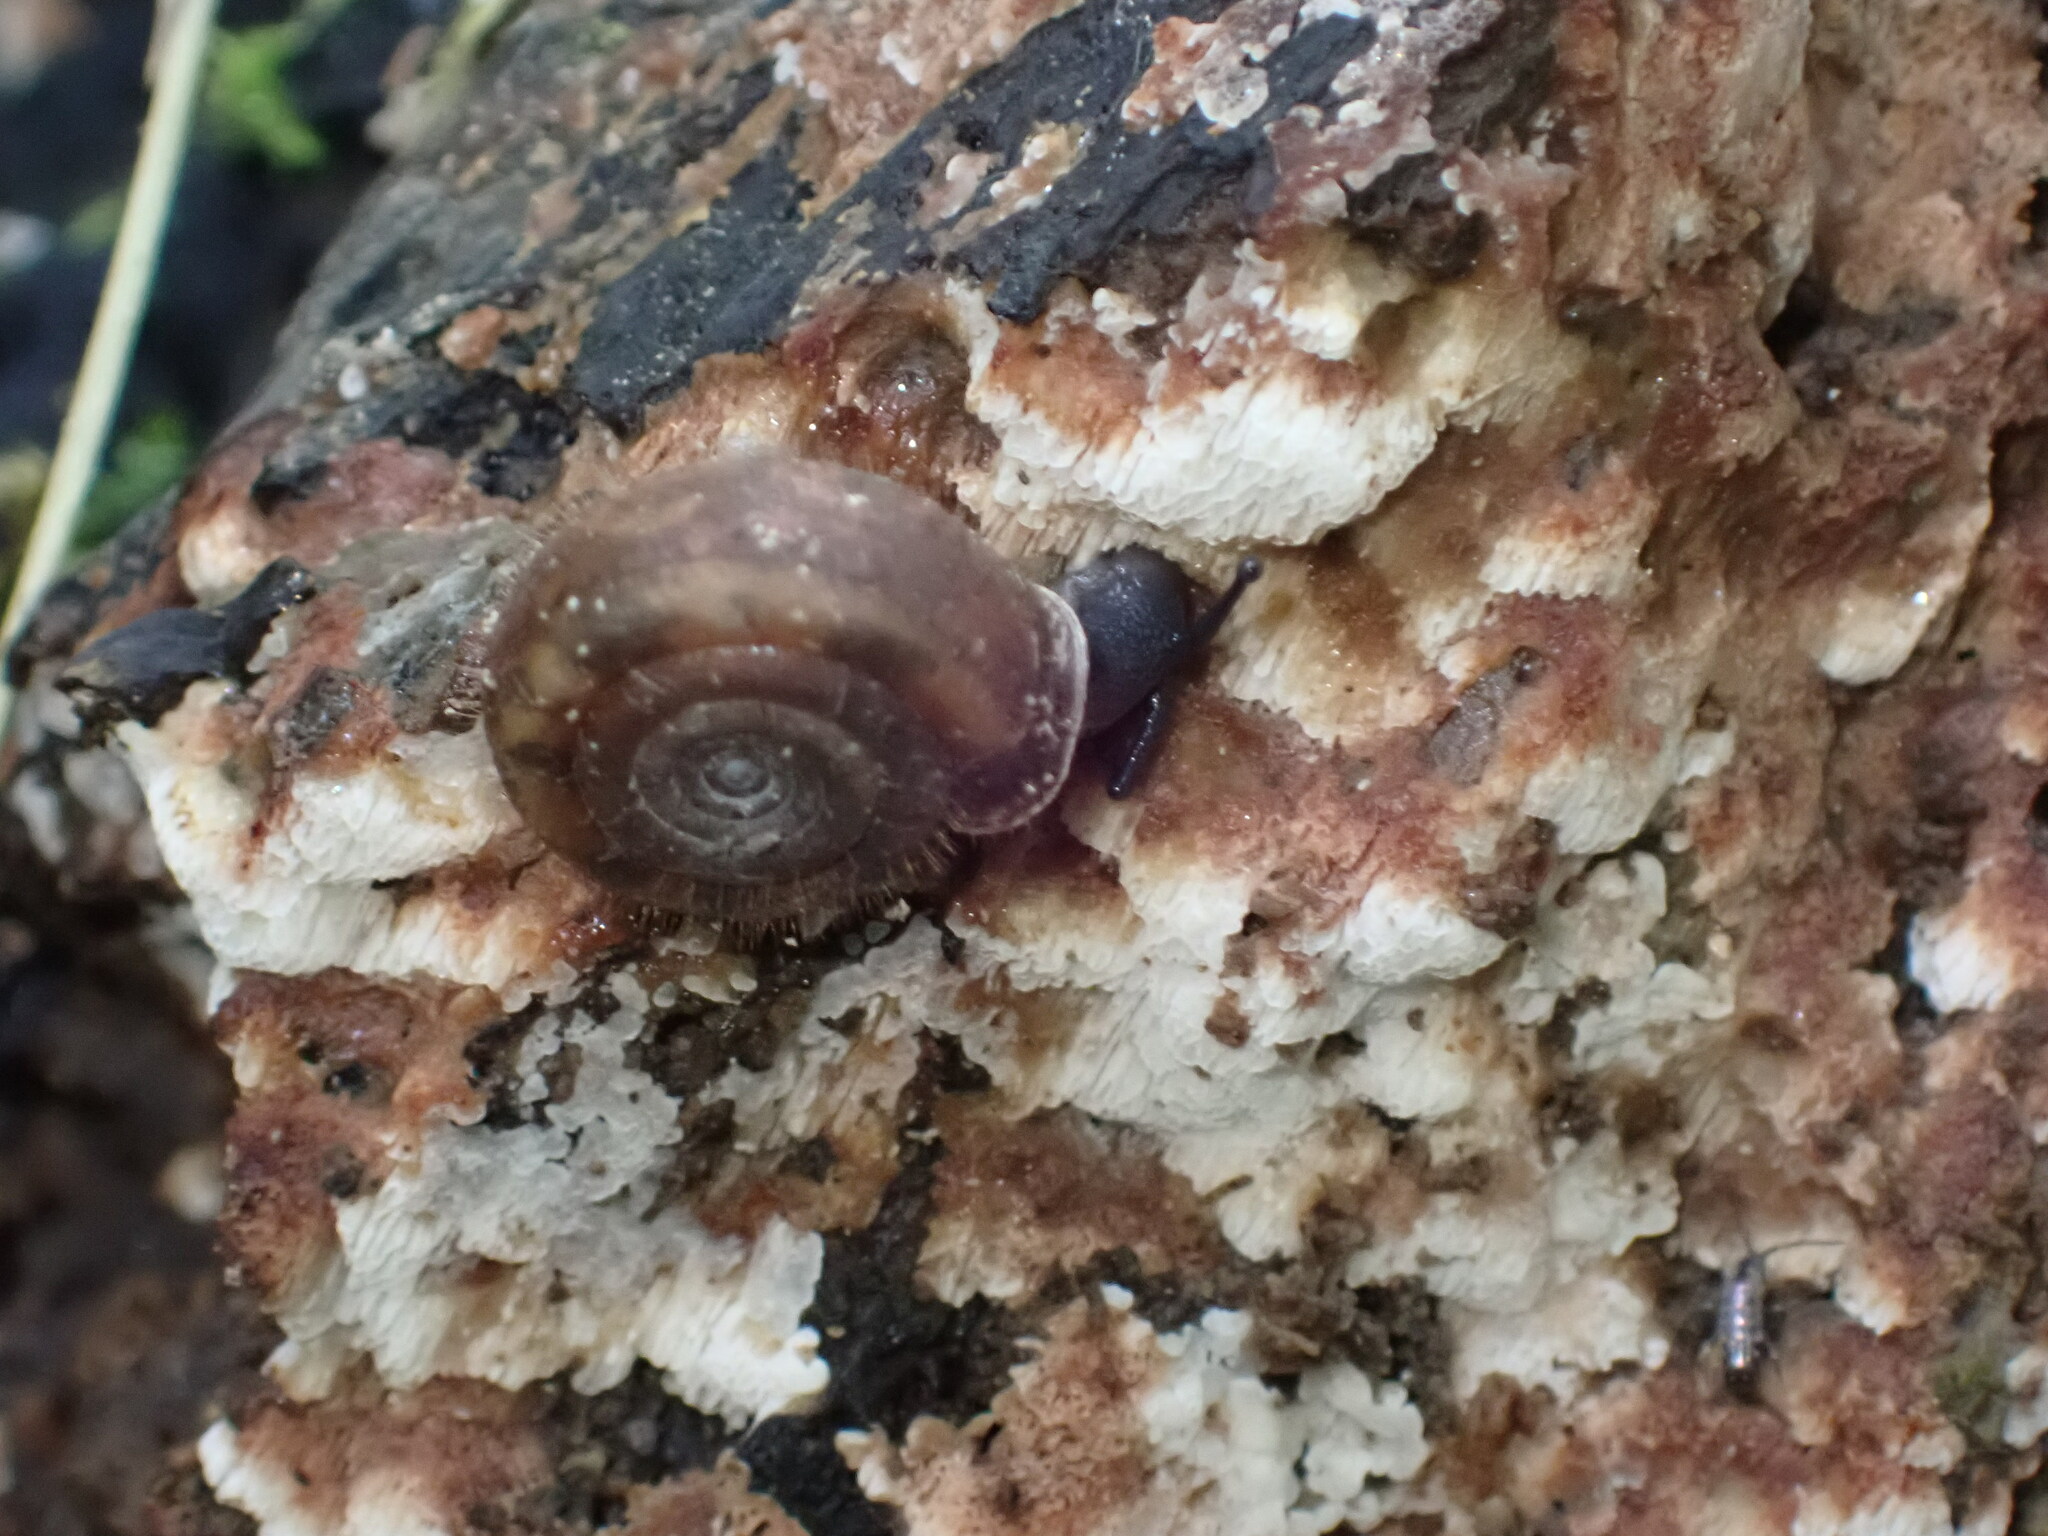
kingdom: Animalia
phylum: Mollusca
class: Gastropoda
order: Stylommatophora
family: Helicodontidae
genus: Helicodonta
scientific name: Helicodonta obvoluta
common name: Cheese snail
